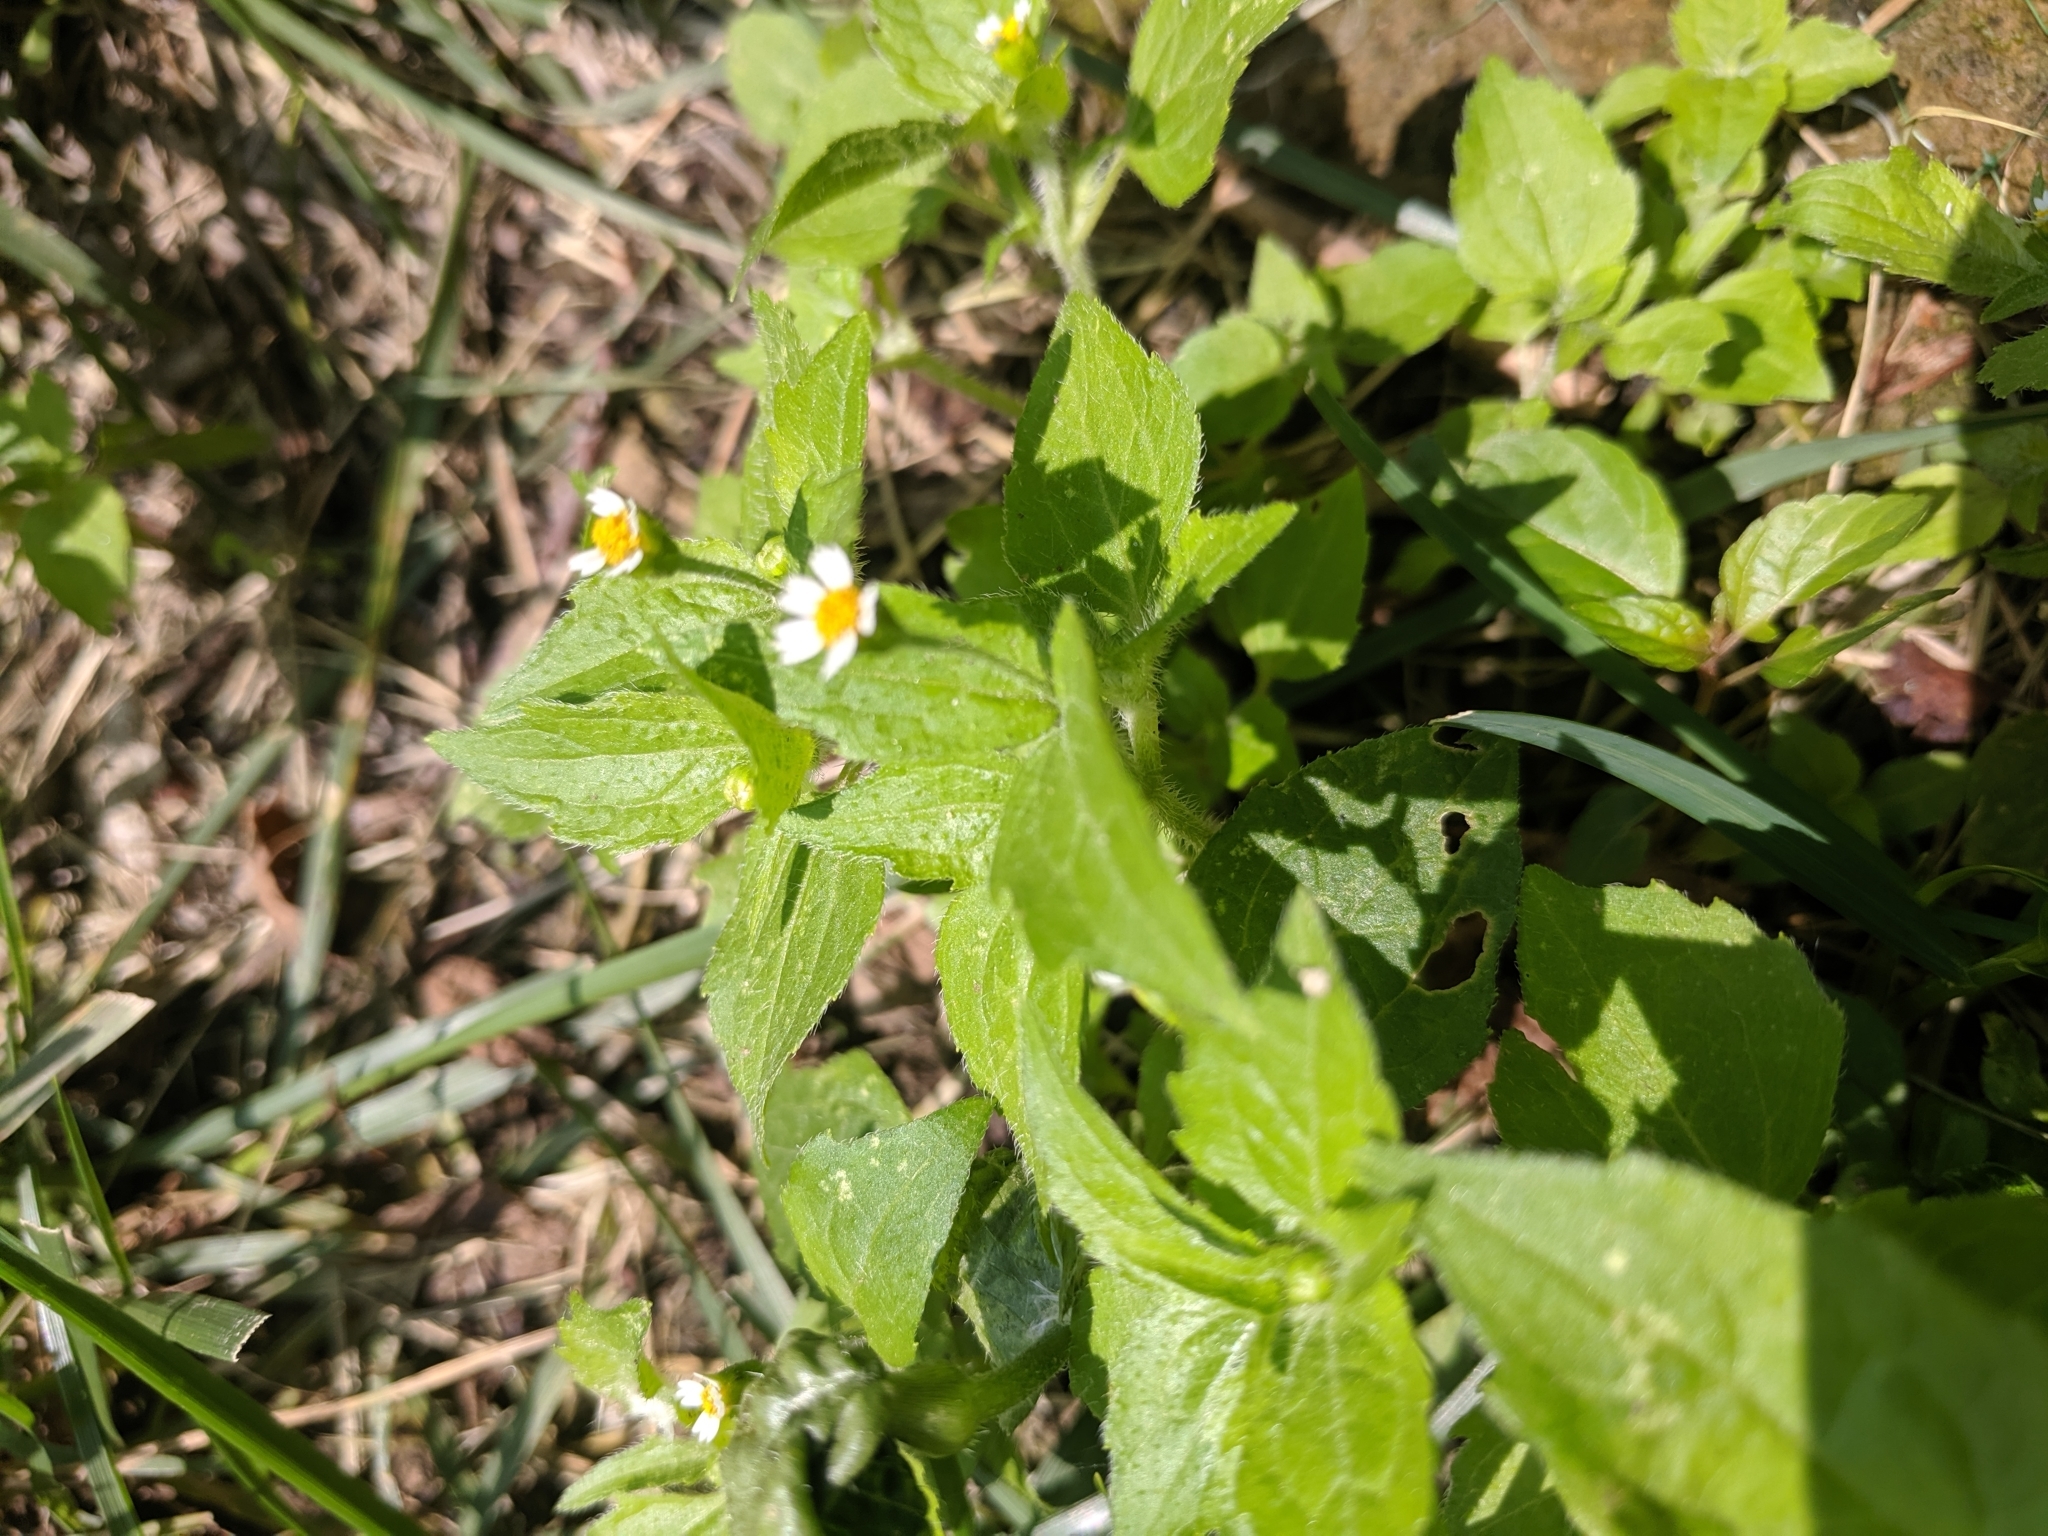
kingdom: Plantae
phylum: Tracheophyta
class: Magnoliopsida
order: Asterales
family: Asteraceae
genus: Galinsoga
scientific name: Galinsoga quadriradiata
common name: Shaggy soldier
